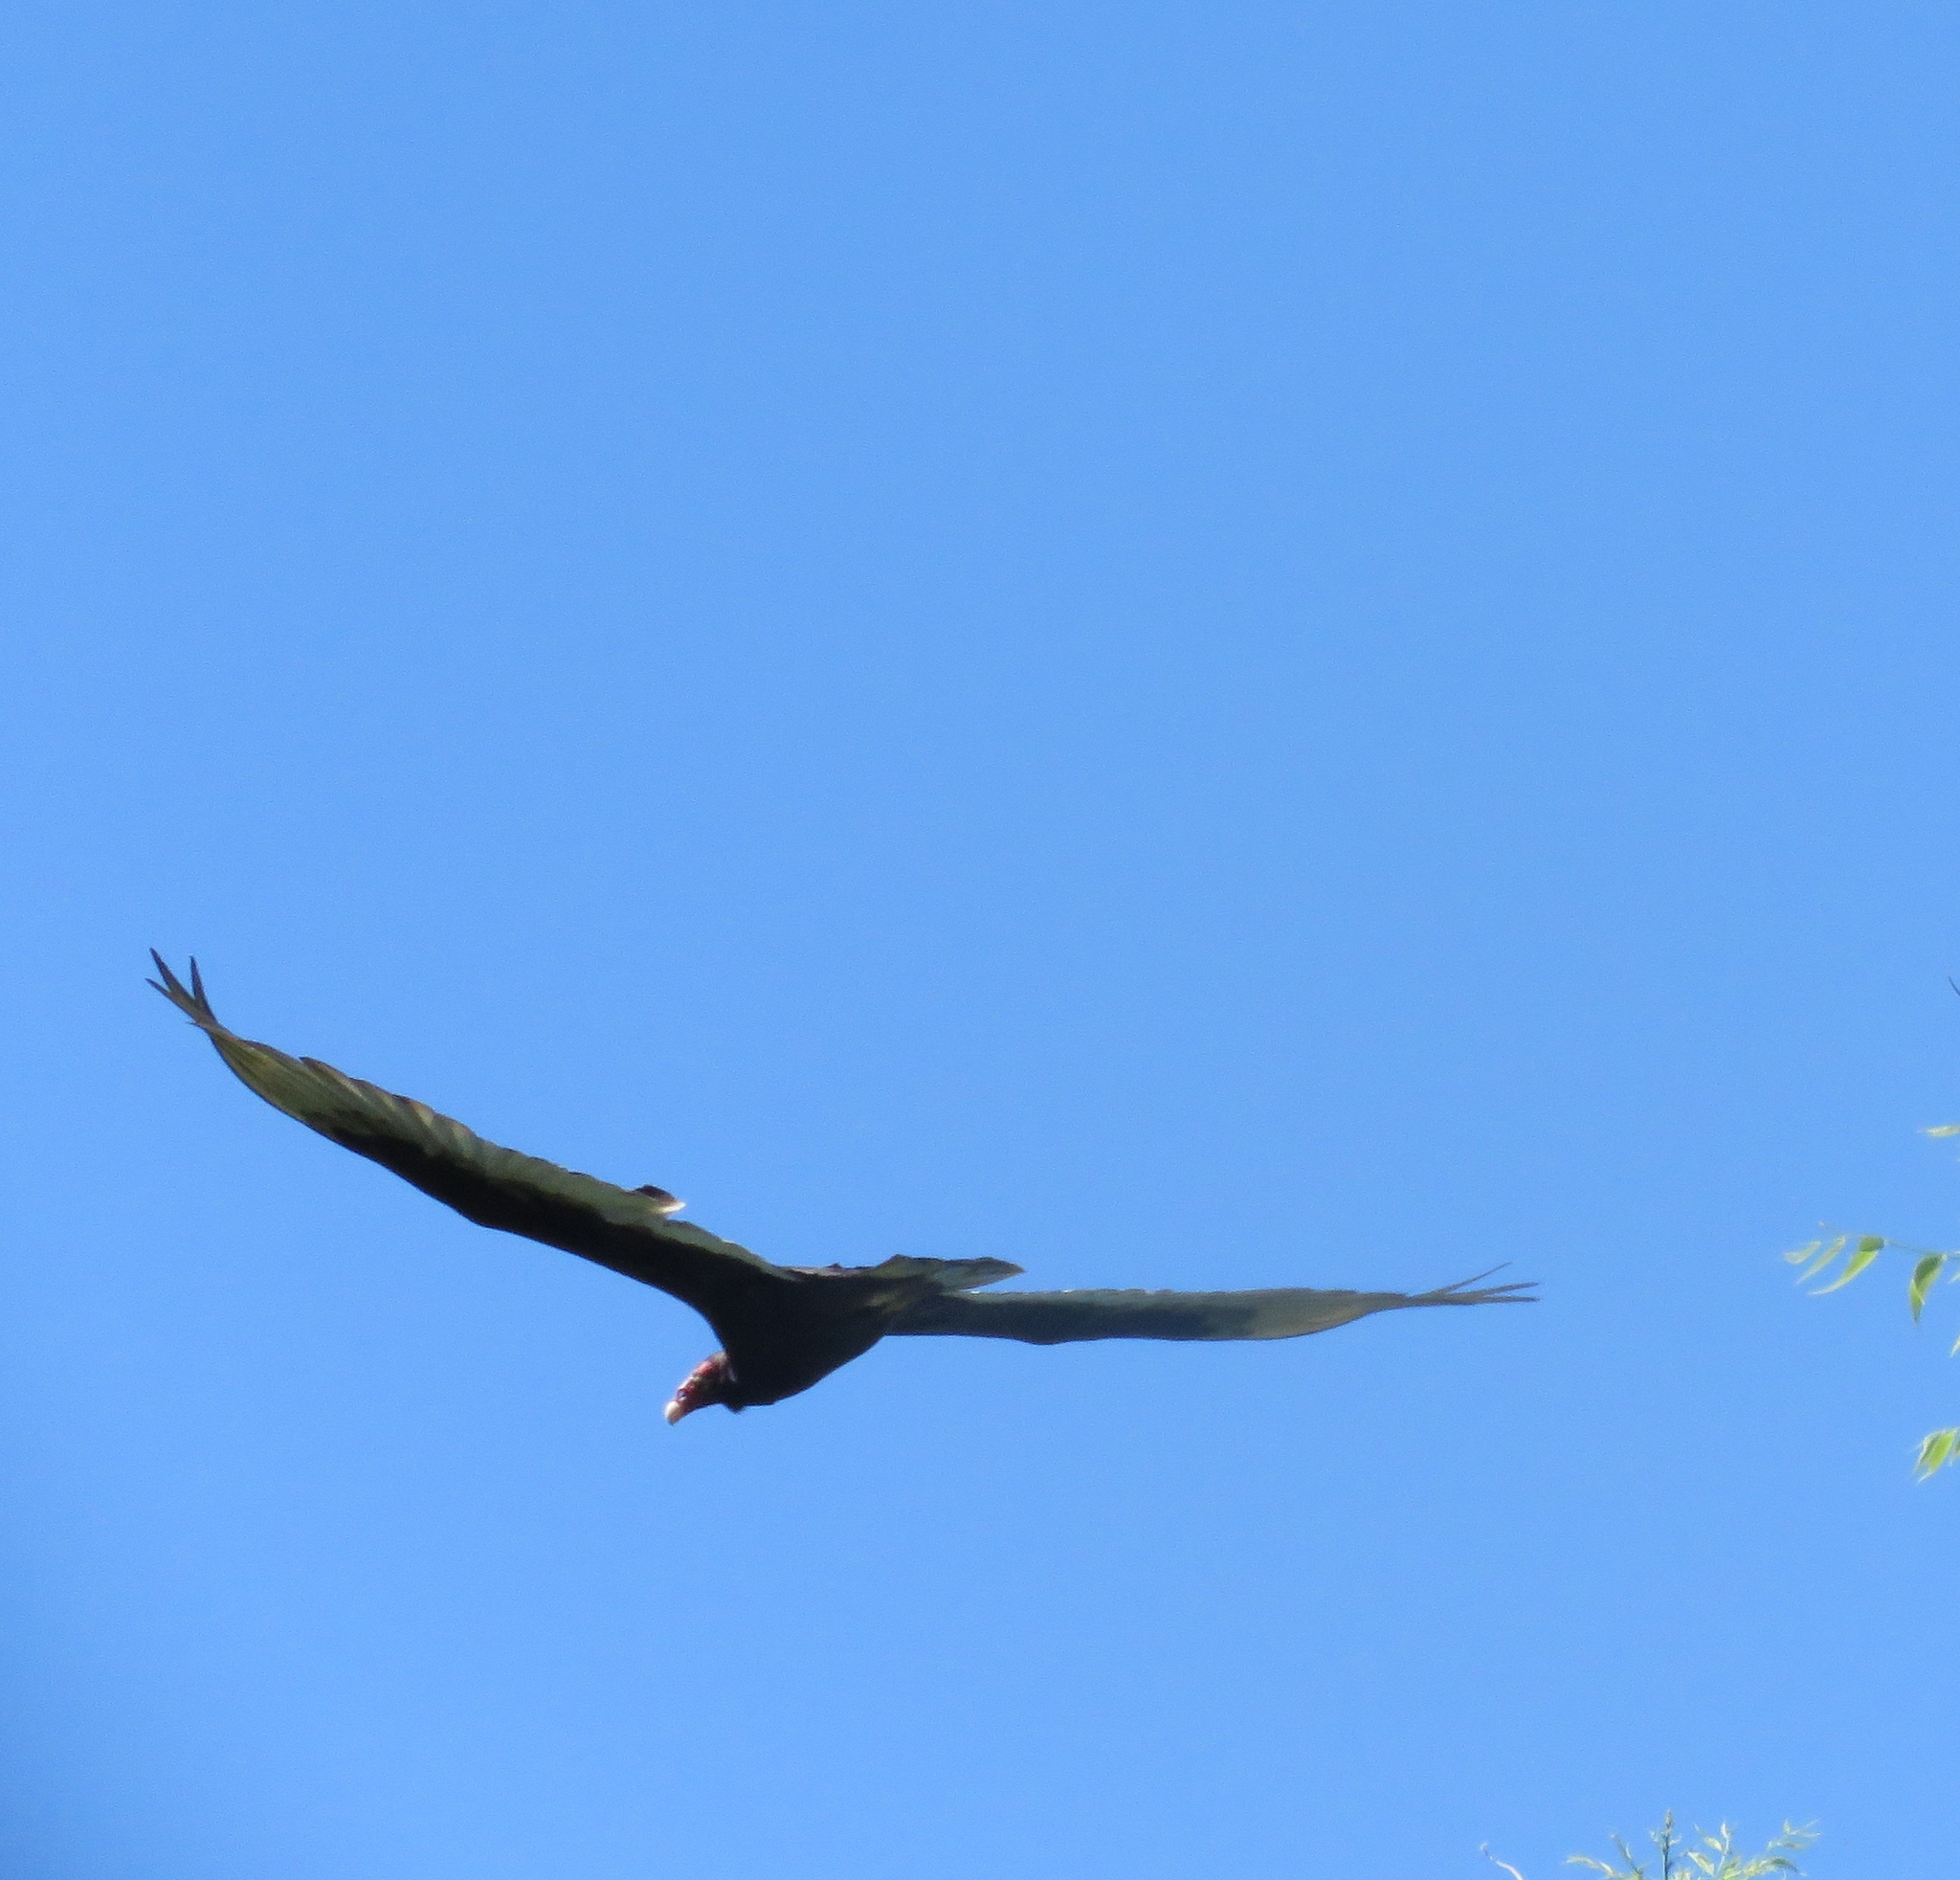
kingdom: Animalia
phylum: Chordata
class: Aves
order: Accipitriformes
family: Cathartidae
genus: Cathartes
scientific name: Cathartes aura
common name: Turkey vulture
